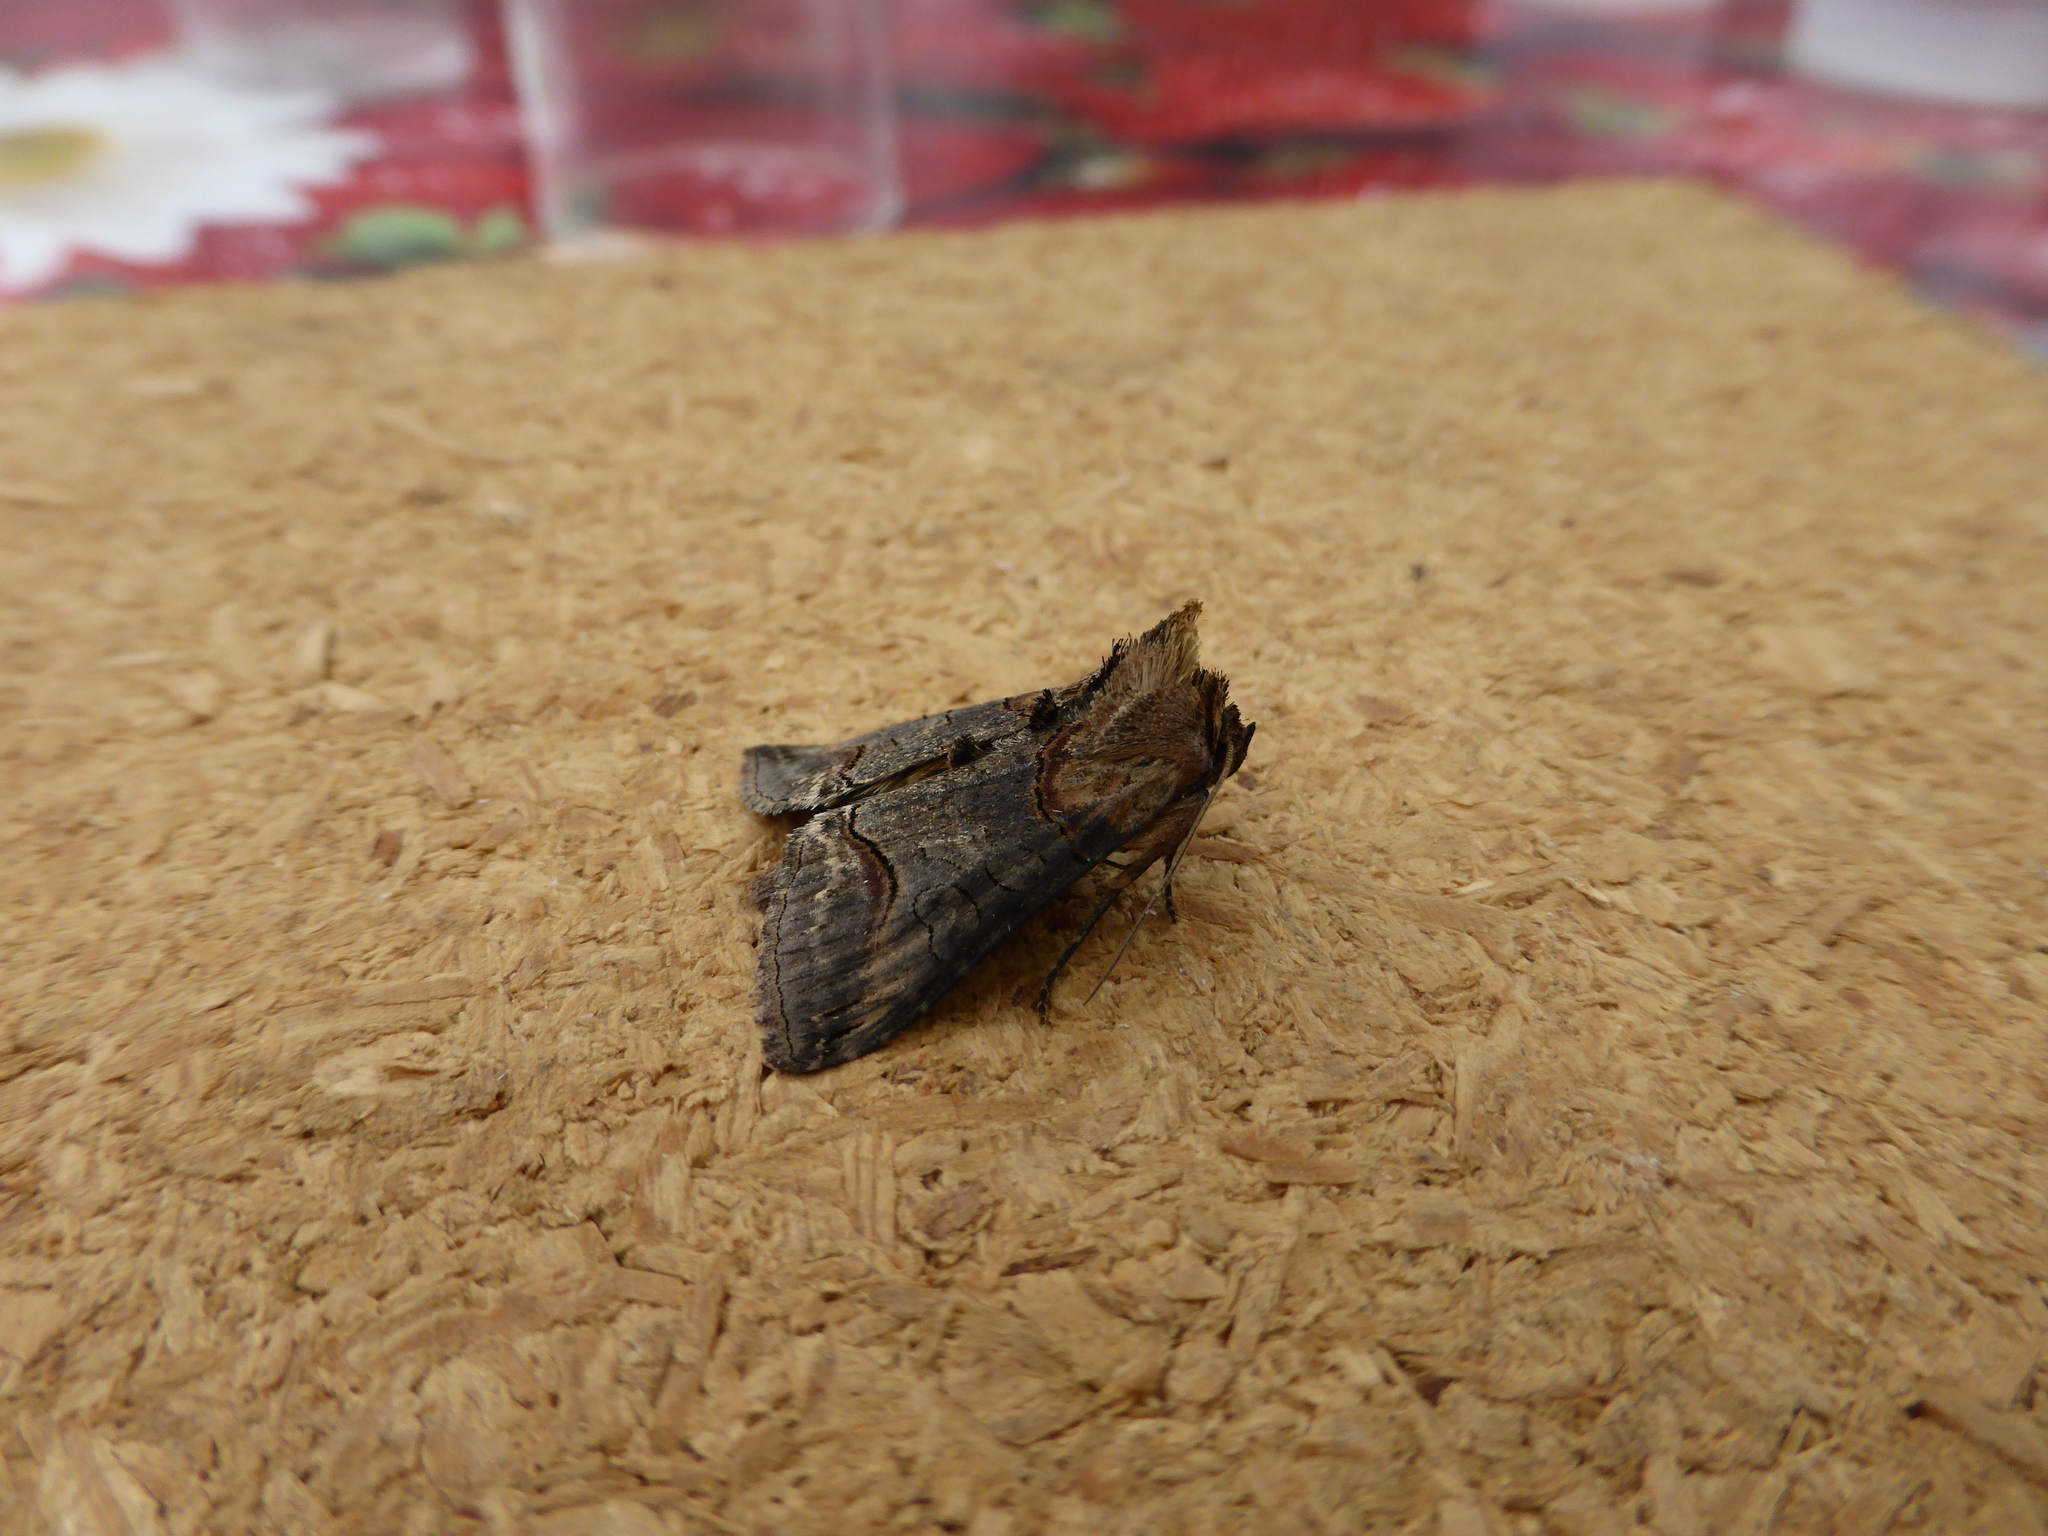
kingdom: Animalia
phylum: Arthropoda
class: Insecta
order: Lepidoptera
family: Noctuidae
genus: Abrostola
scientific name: Abrostola triplasia
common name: Dark spectacle
